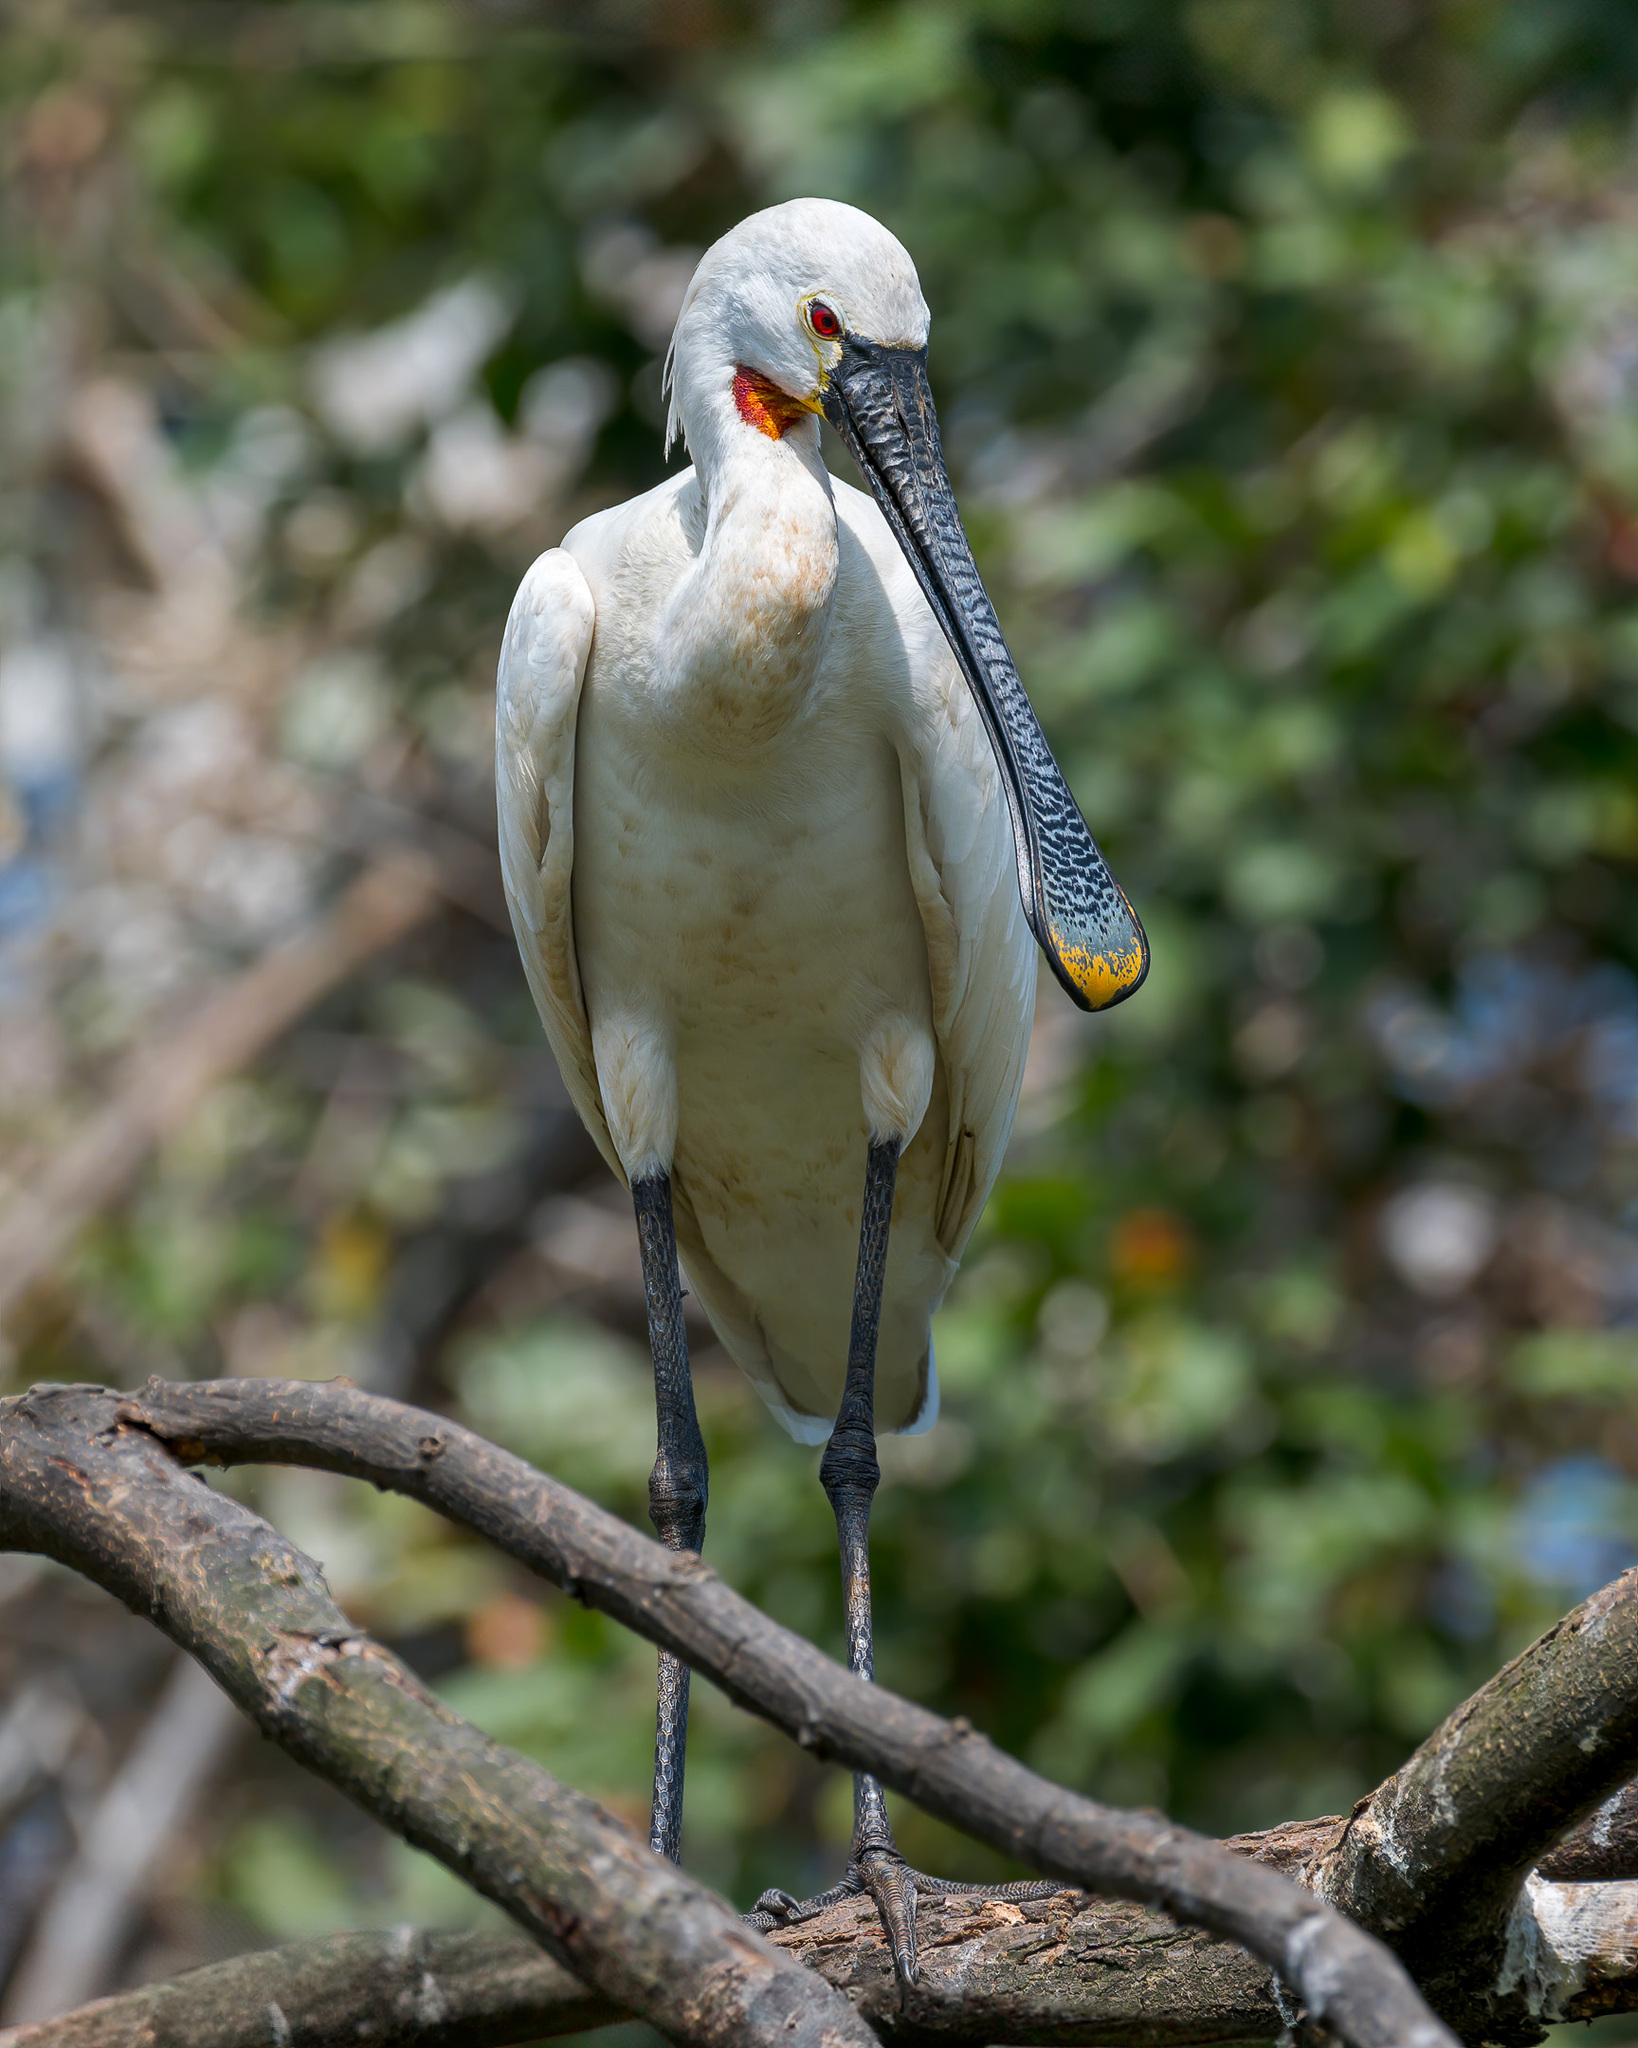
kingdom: Animalia
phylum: Chordata
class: Aves
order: Pelecaniformes
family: Threskiornithidae
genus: Platalea
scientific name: Platalea leucorodia
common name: Eurasian spoonbill
